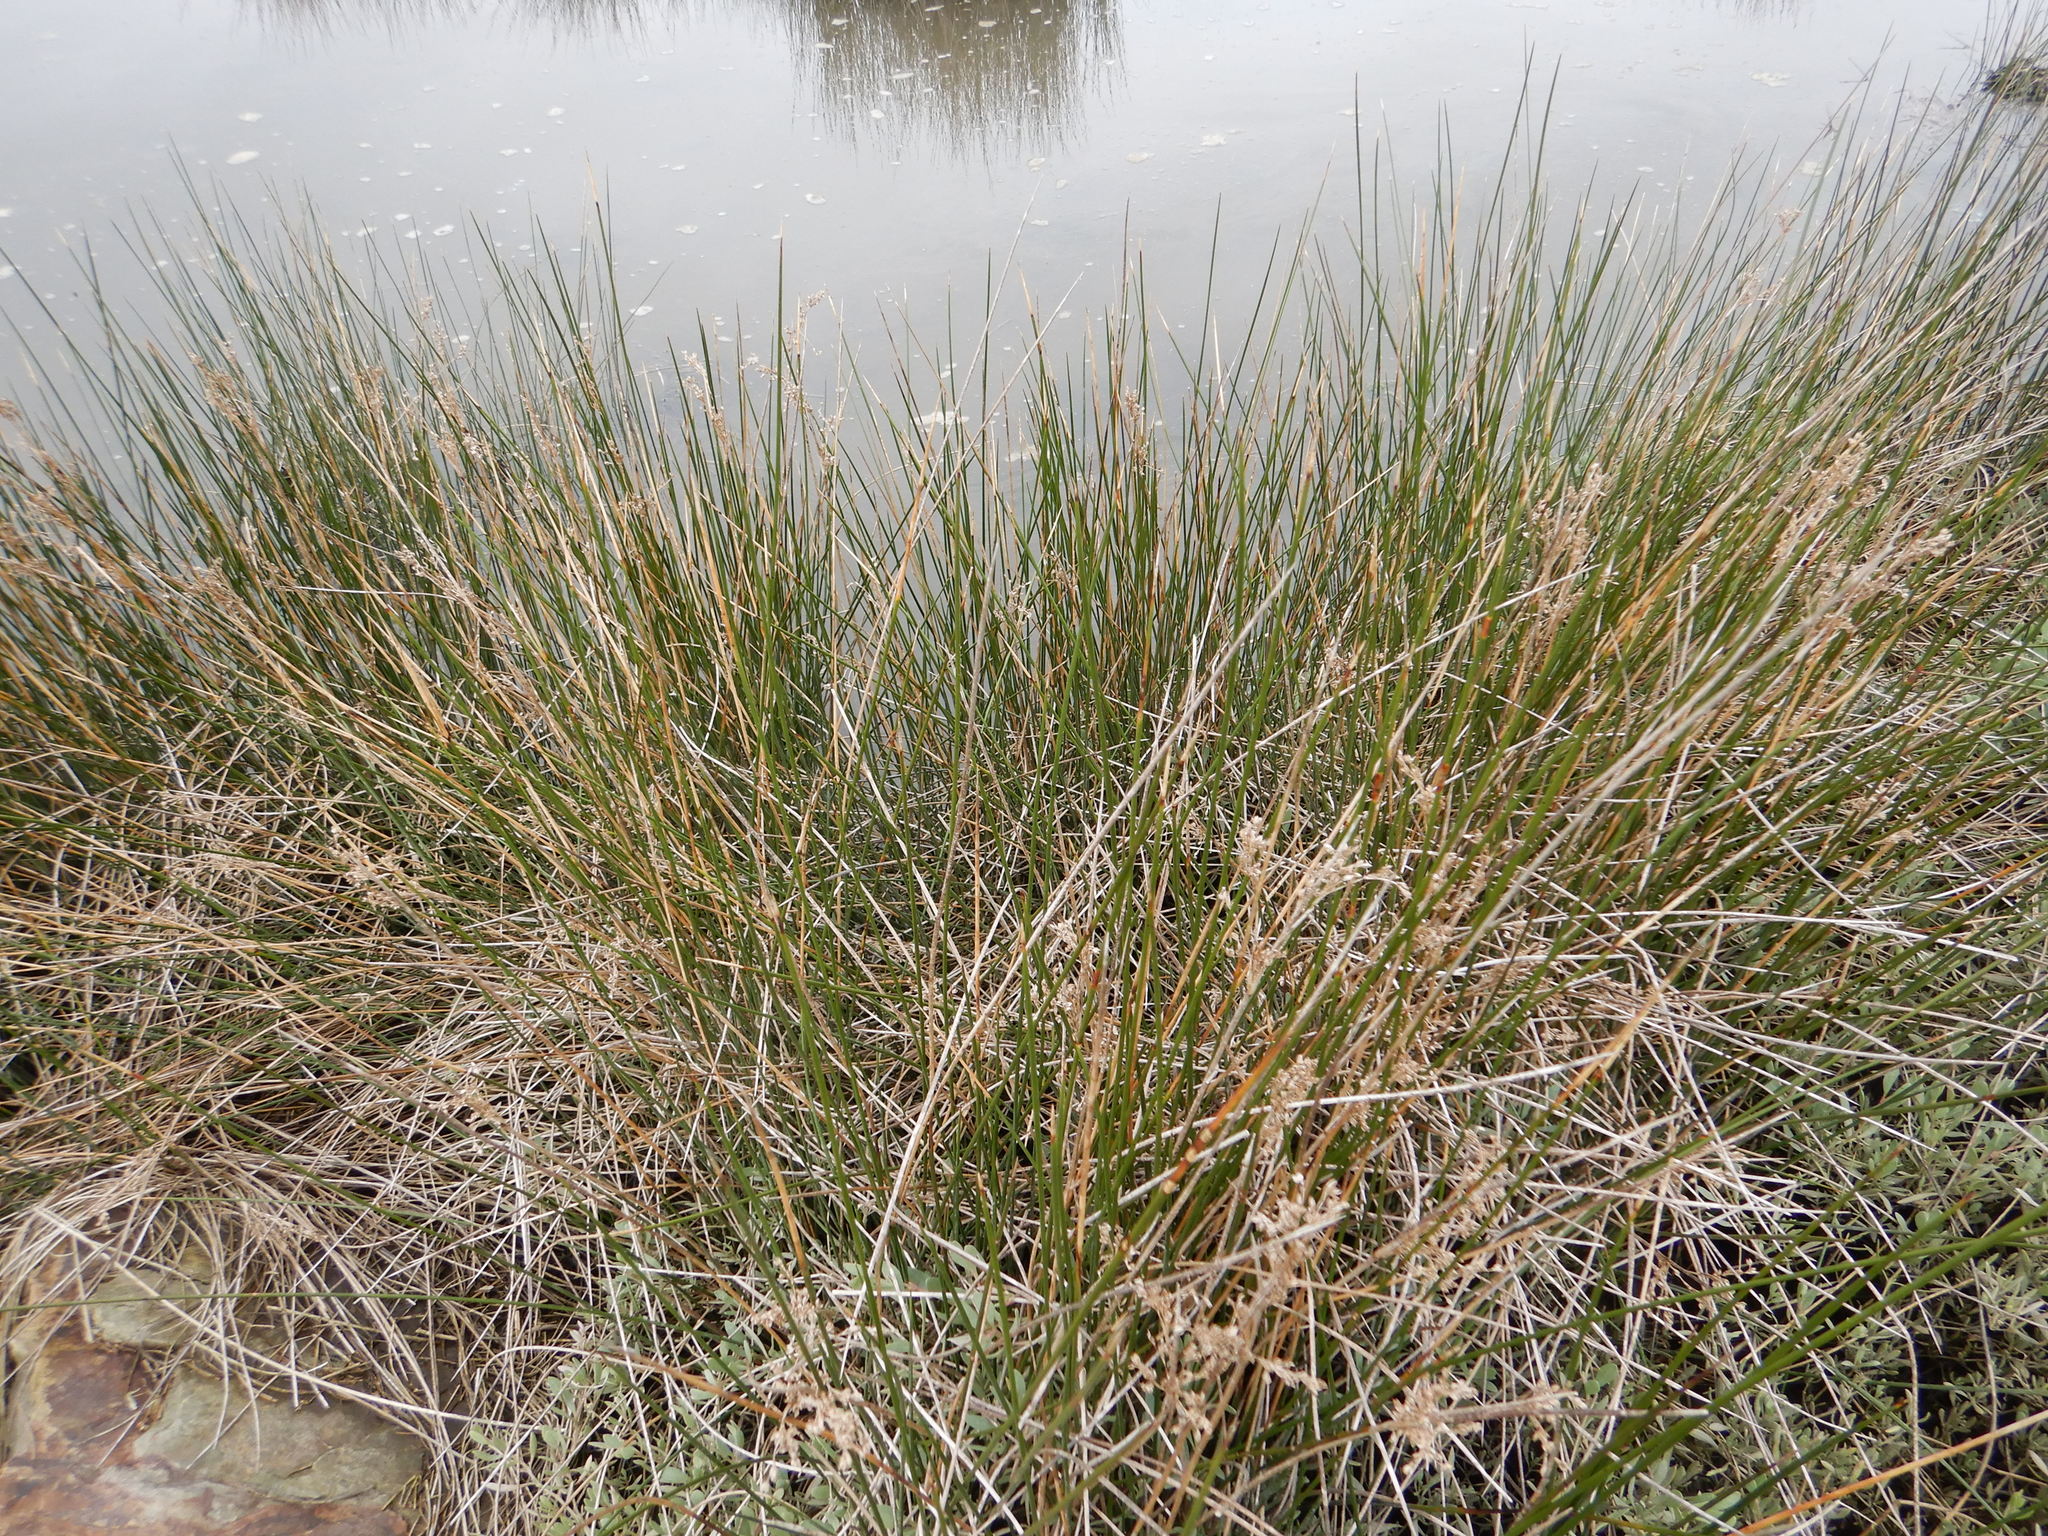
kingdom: Plantae
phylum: Tracheophyta
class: Liliopsida
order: Poales
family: Juncaceae
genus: Juncus
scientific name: Juncus maritimus
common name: Sea rush
